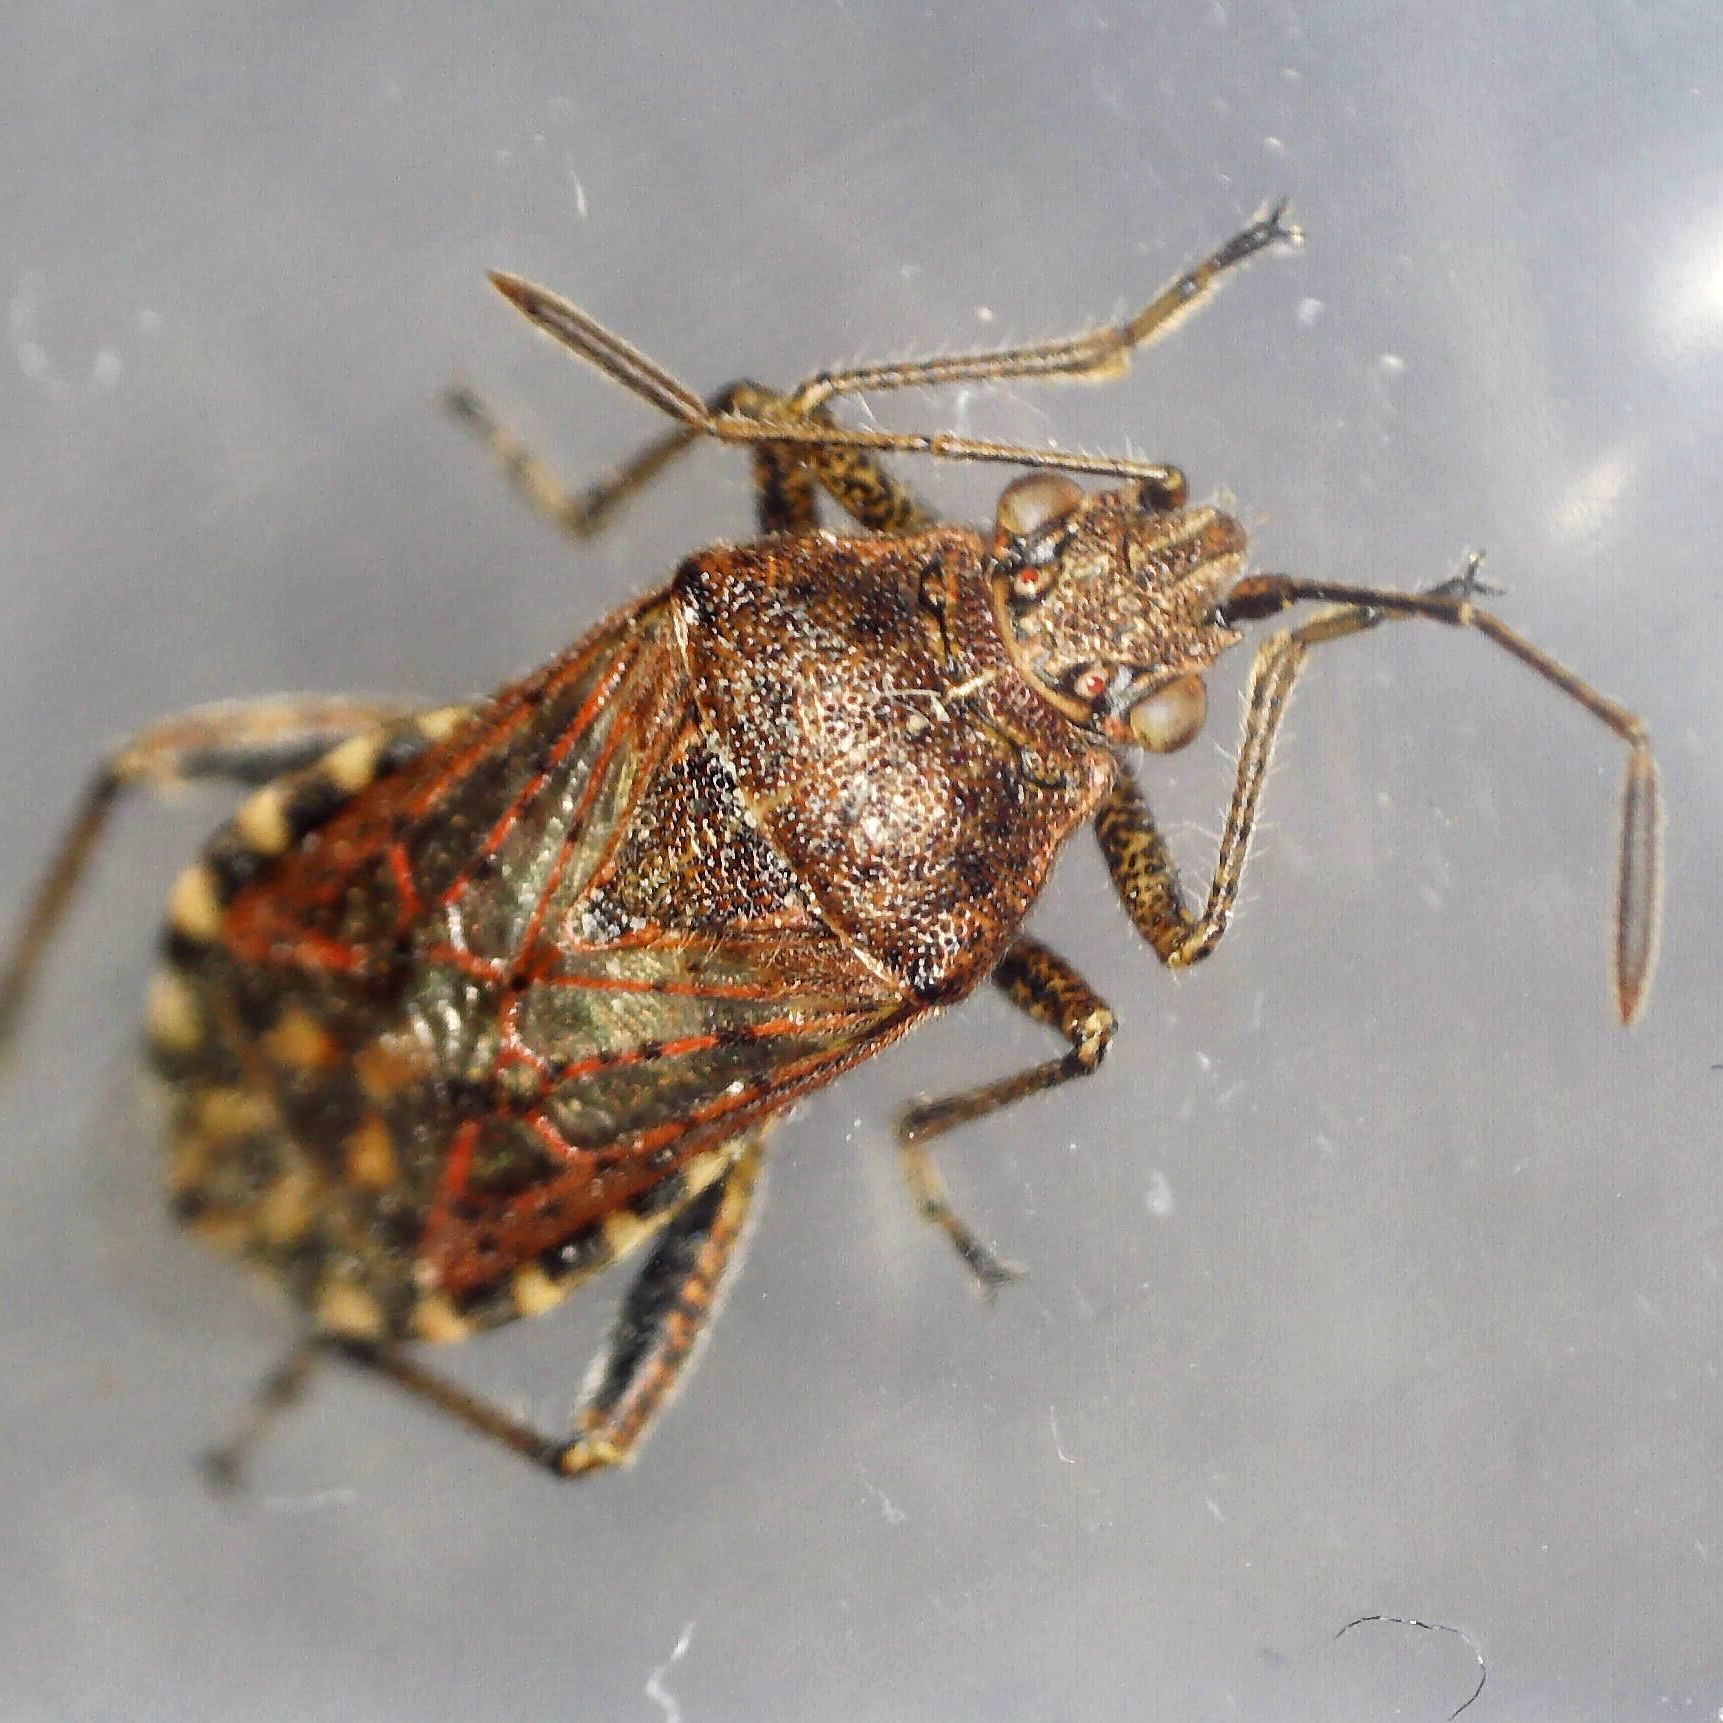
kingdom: Animalia
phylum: Arthropoda
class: Insecta
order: Hemiptera
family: Rhopalidae
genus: Stictopleurus
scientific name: Stictopleurus punctatonervosus
